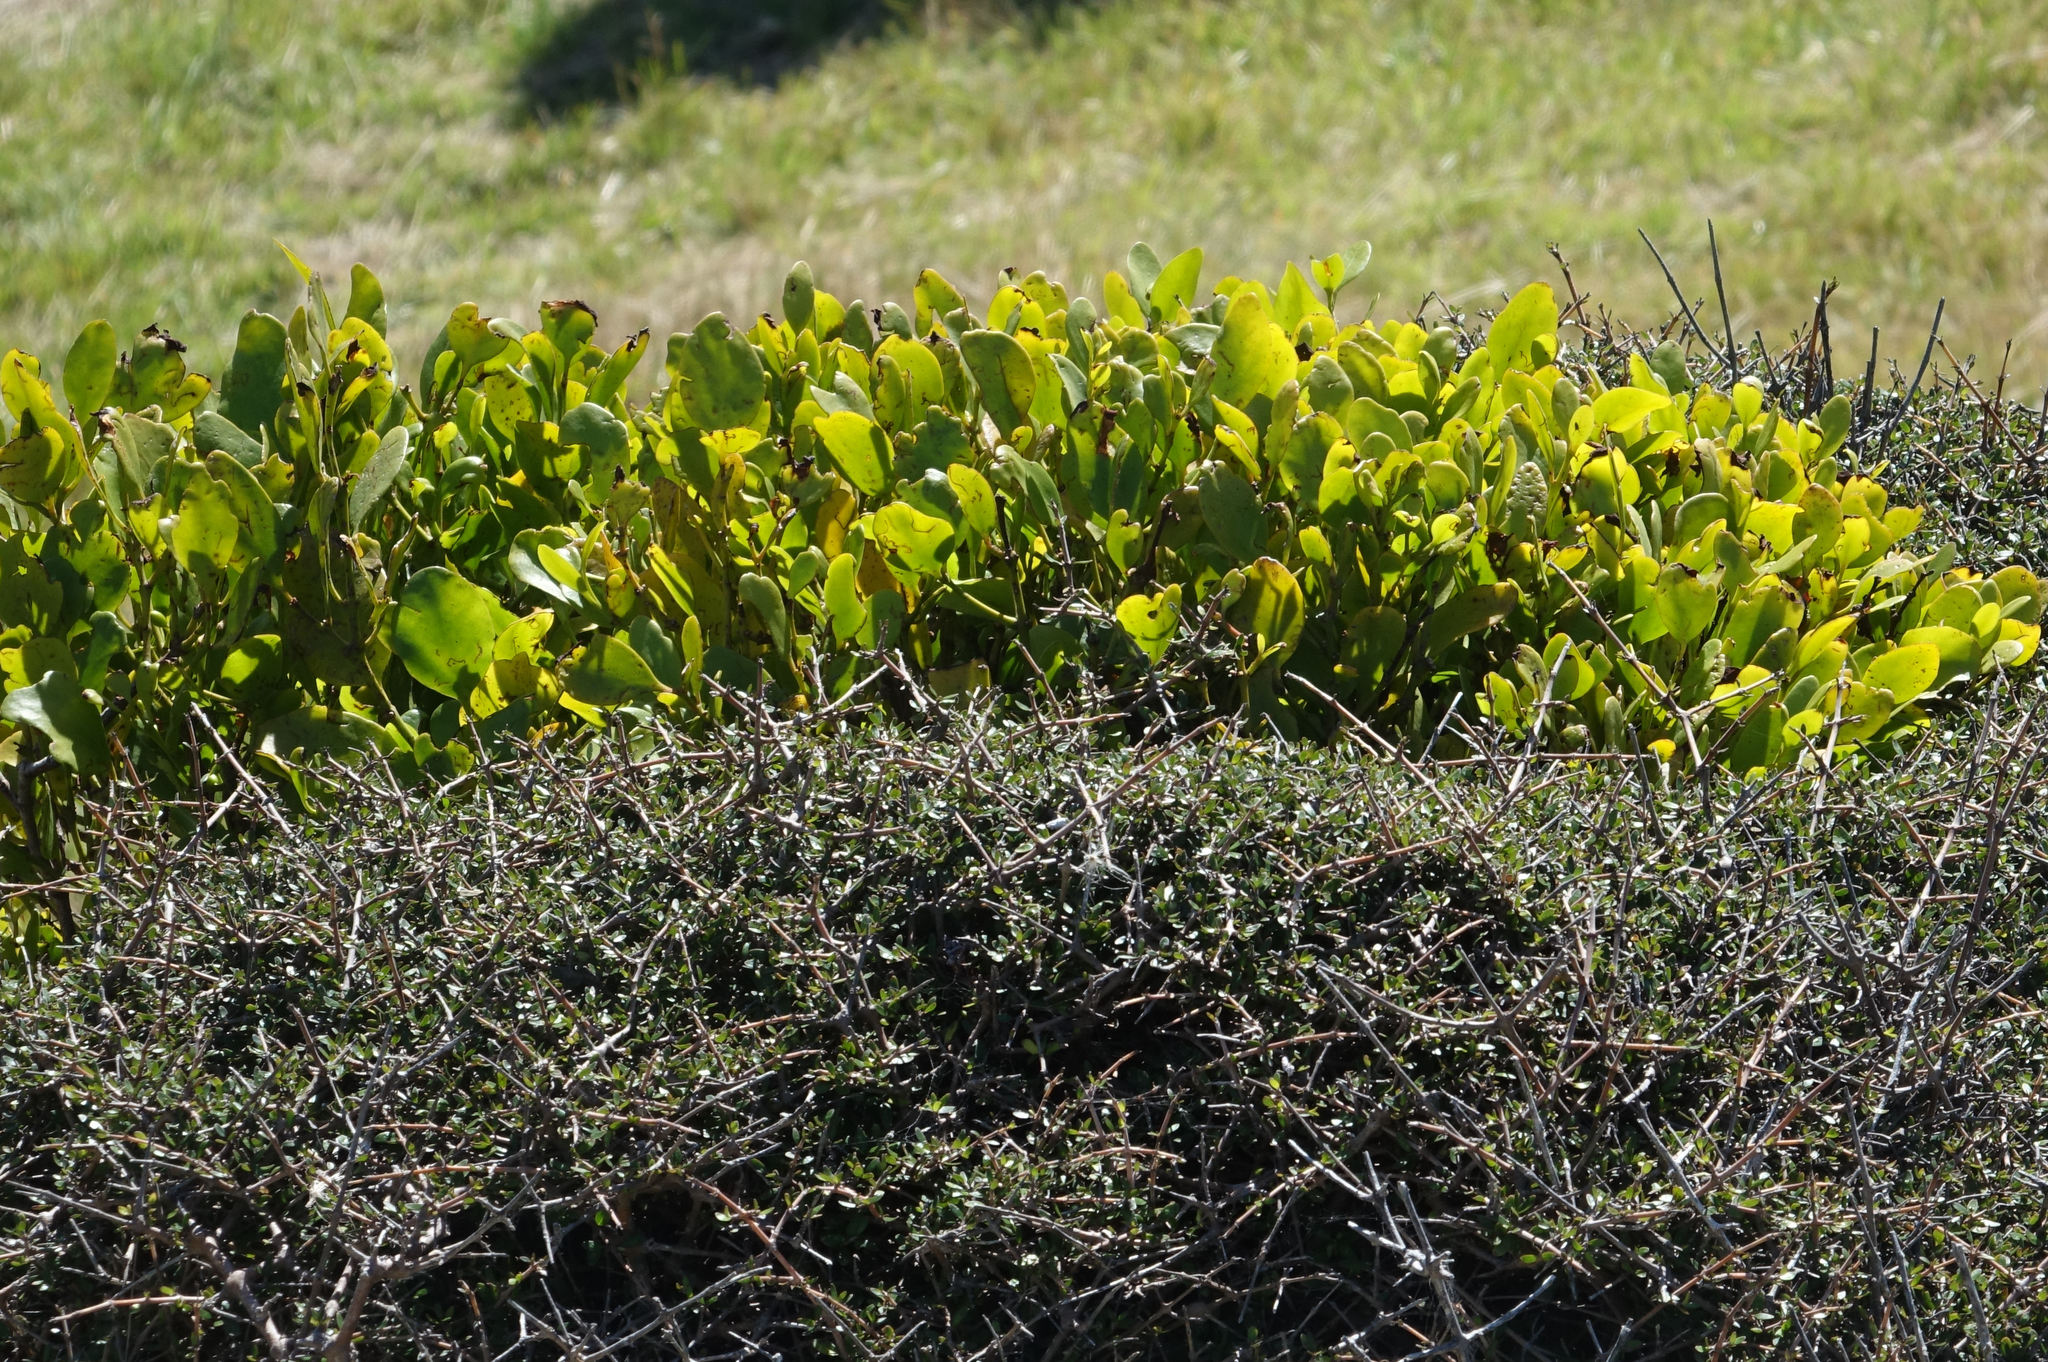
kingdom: Plantae
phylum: Tracheophyta
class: Magnoliopsida
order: Santalales
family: Loranthaceae
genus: Ileostylus
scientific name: Ileostylus micranthus
